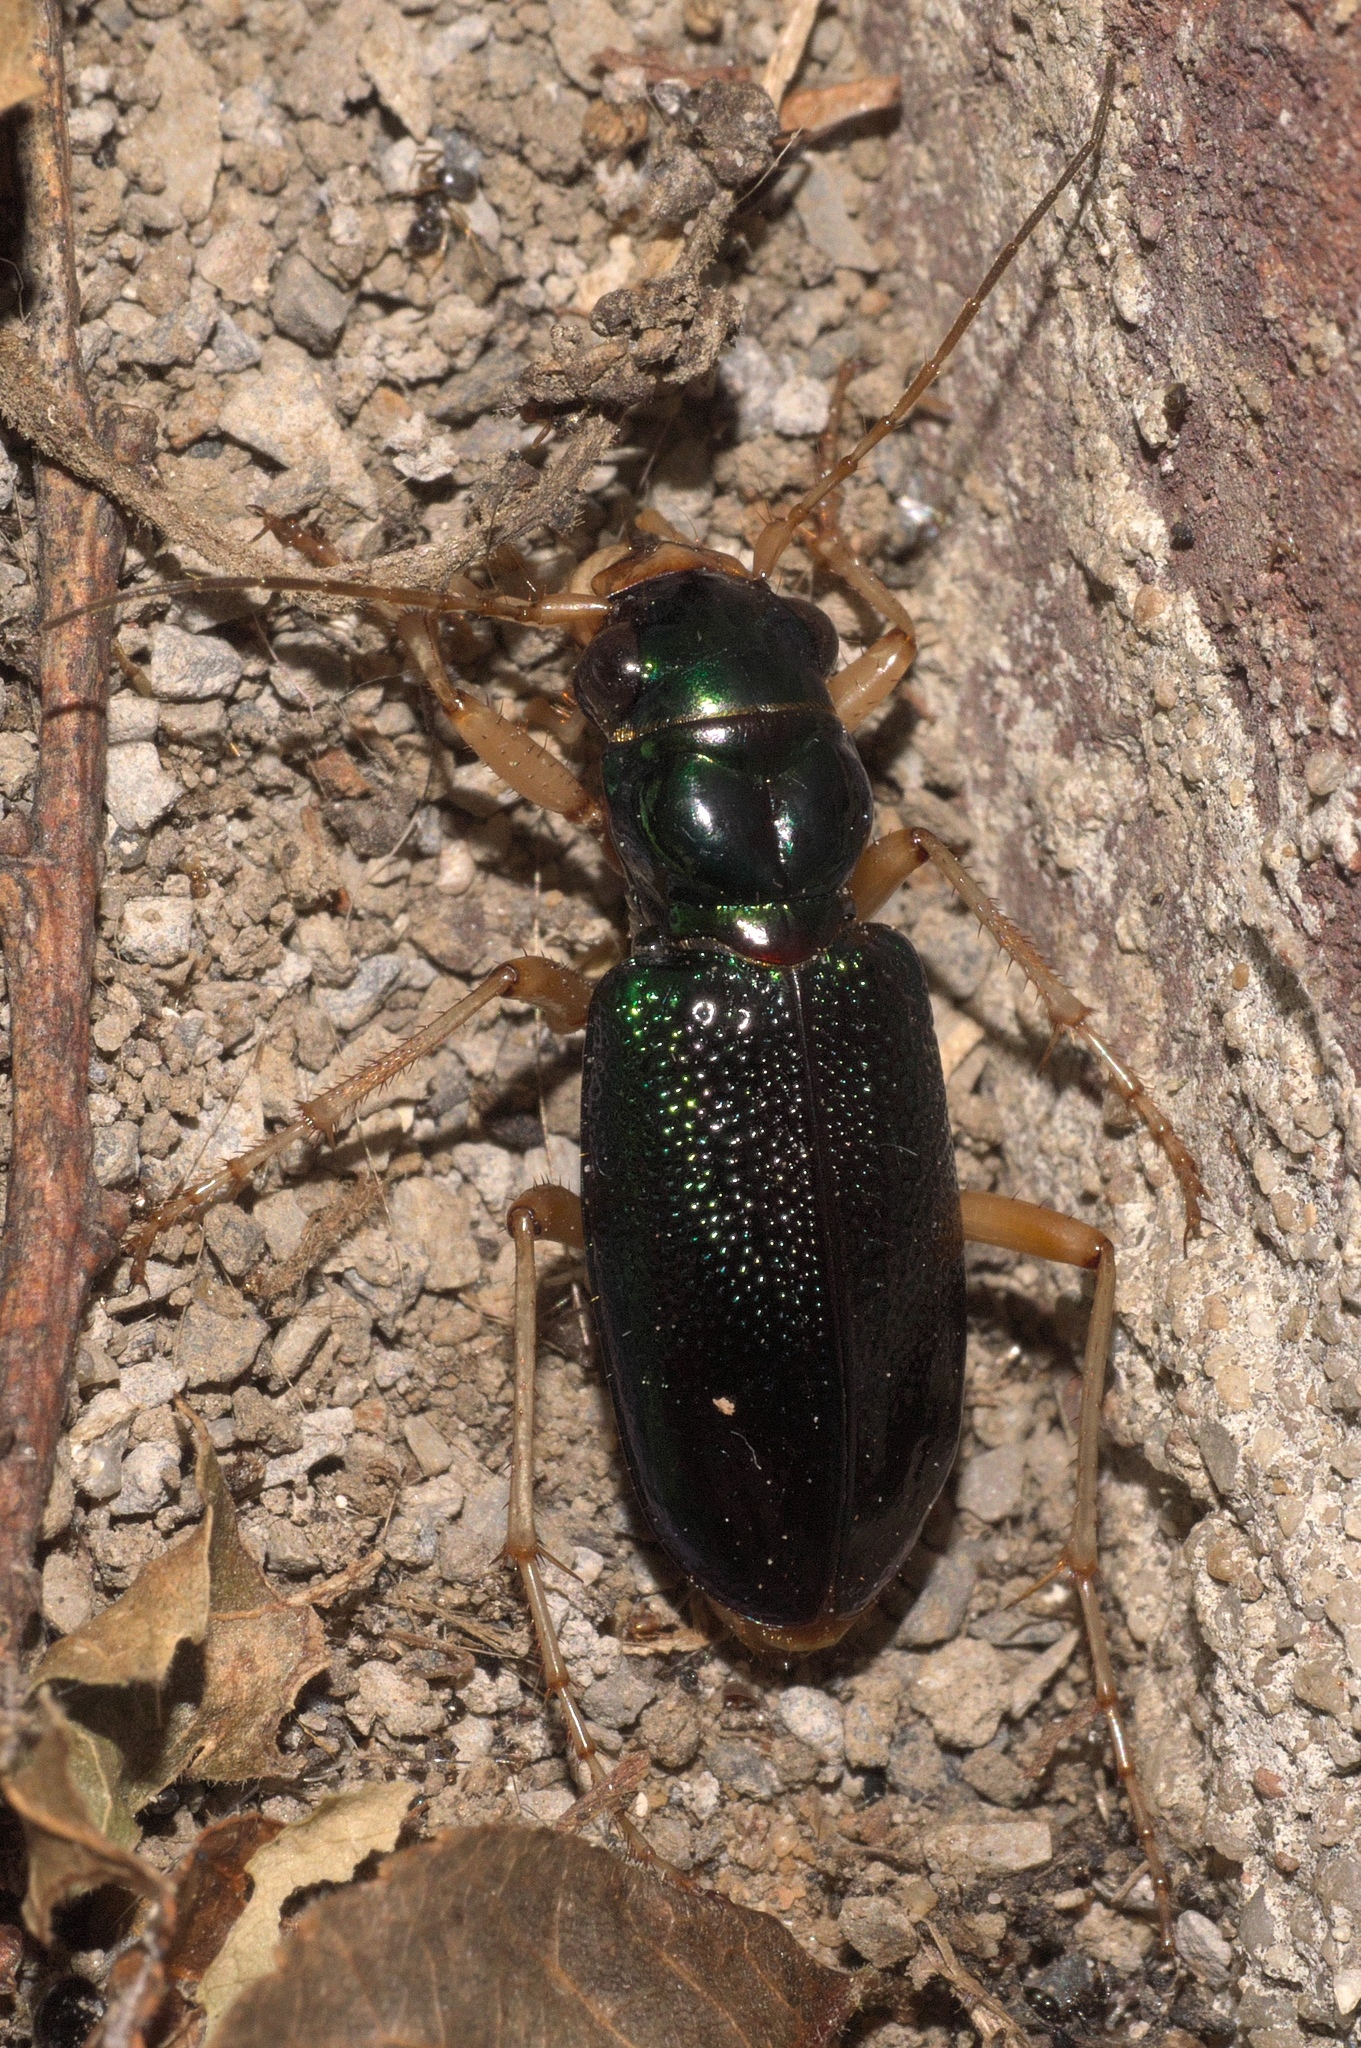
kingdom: Animalia
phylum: Arthropoda
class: Insecta
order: Coleoptera
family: Carabidae
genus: Tetracha
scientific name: Tetracha virginica
